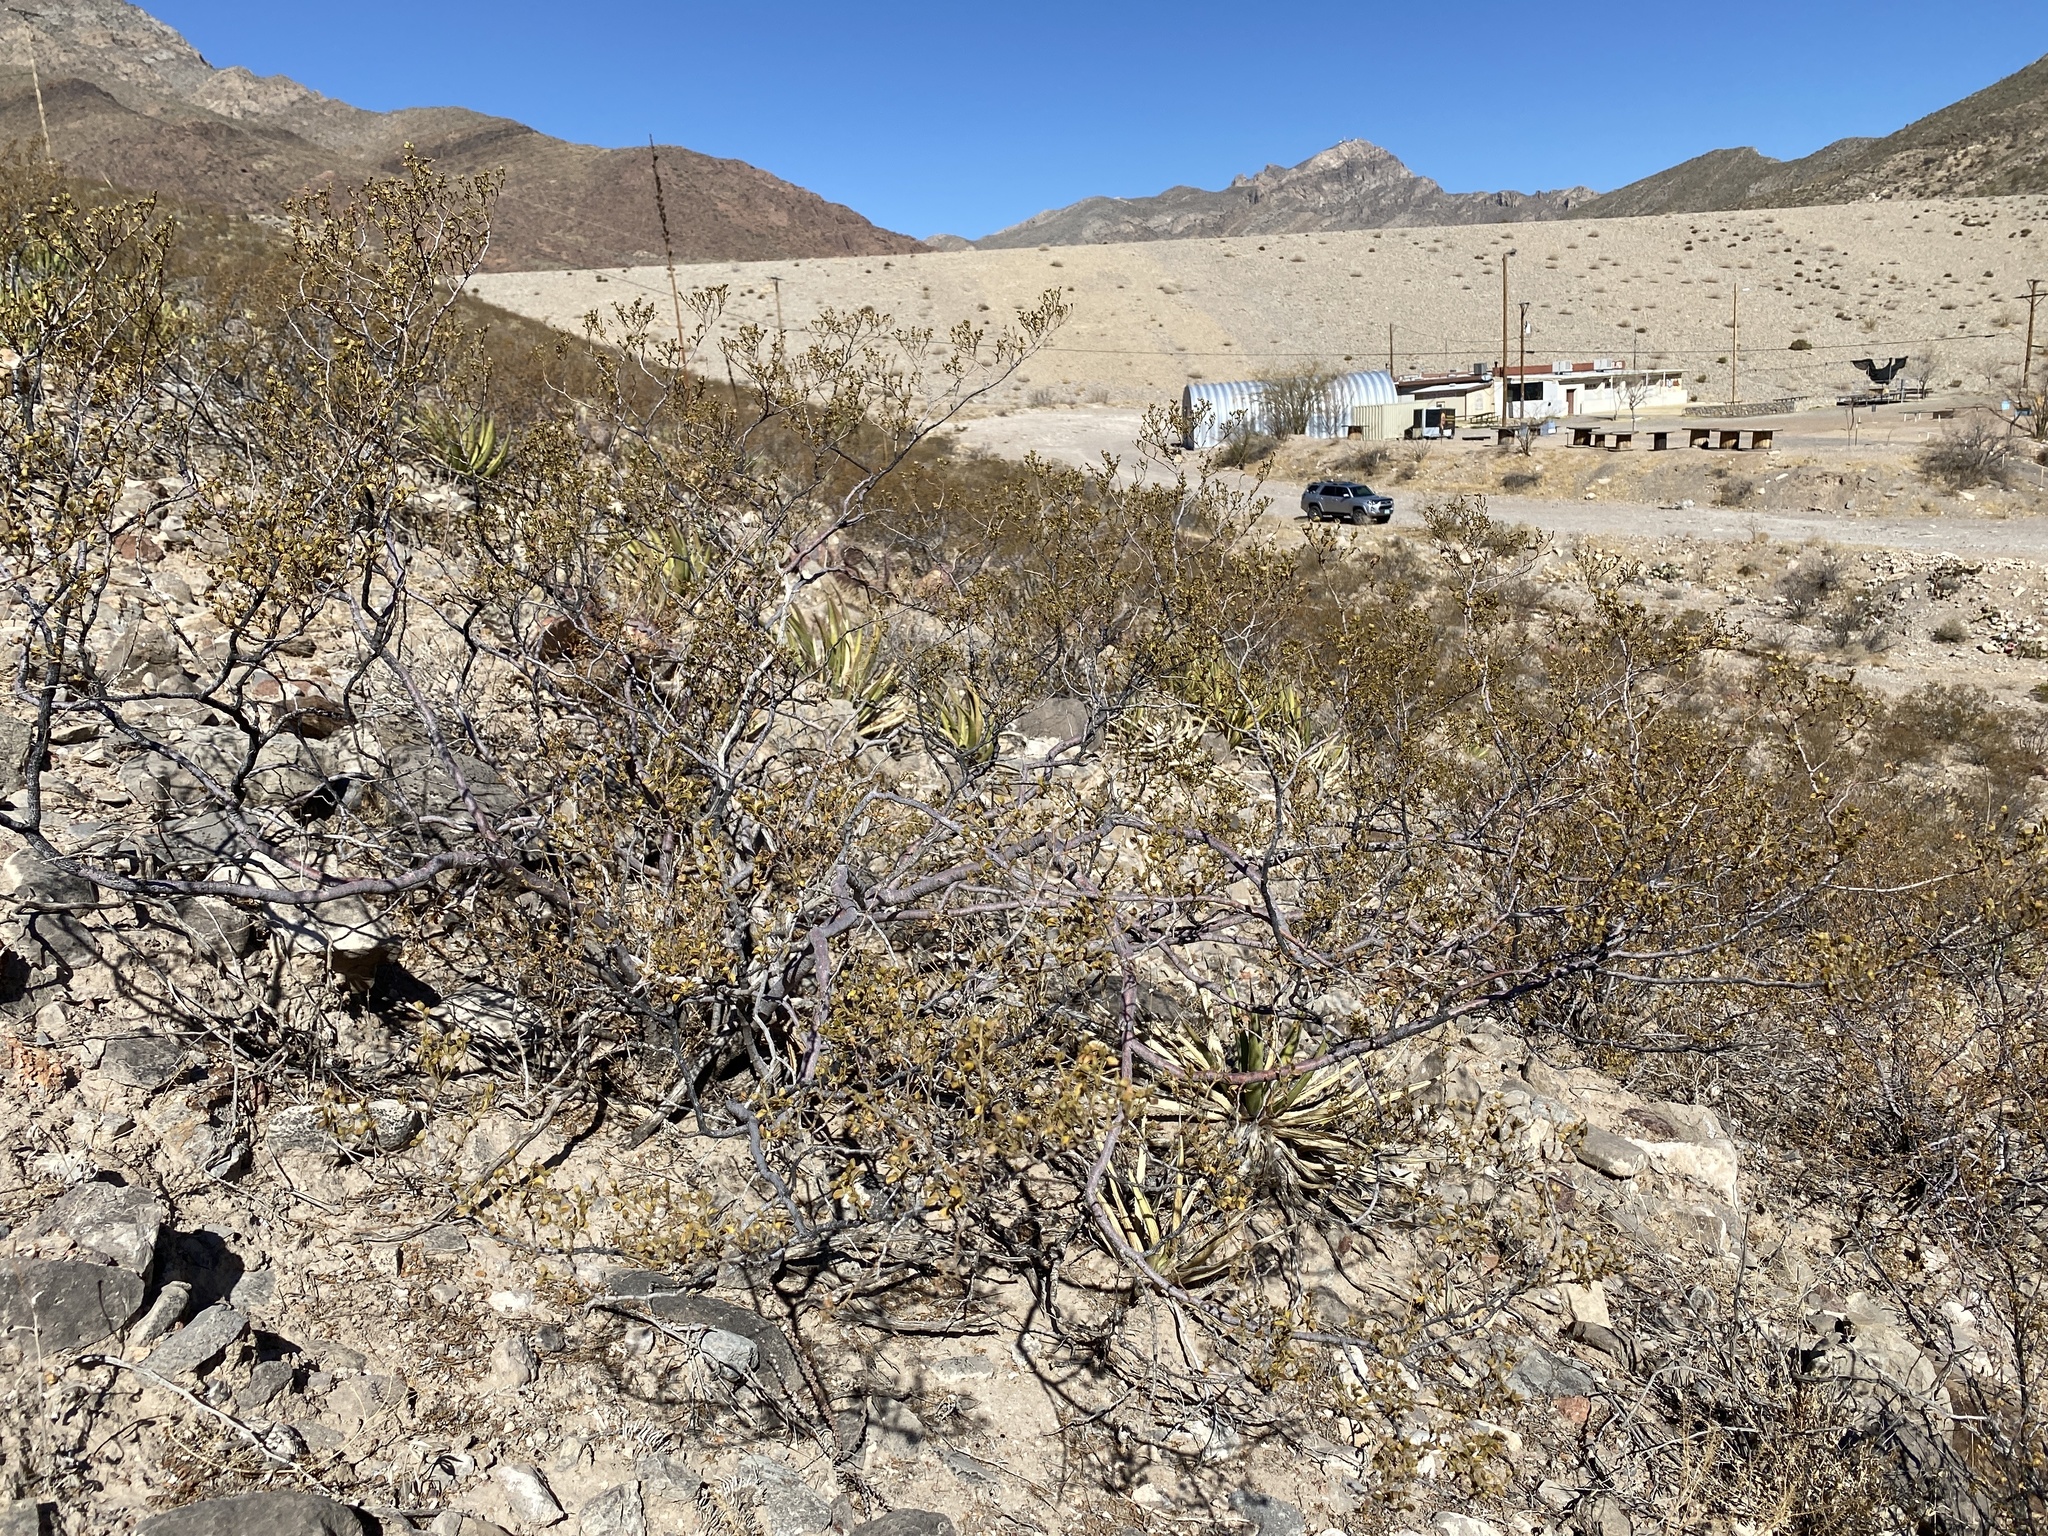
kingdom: Plantae
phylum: Tracheophyta
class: Magnoliopsida
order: Zygophyllales
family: Zygophyllaceae
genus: Larrea
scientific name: Larrea tridentata
